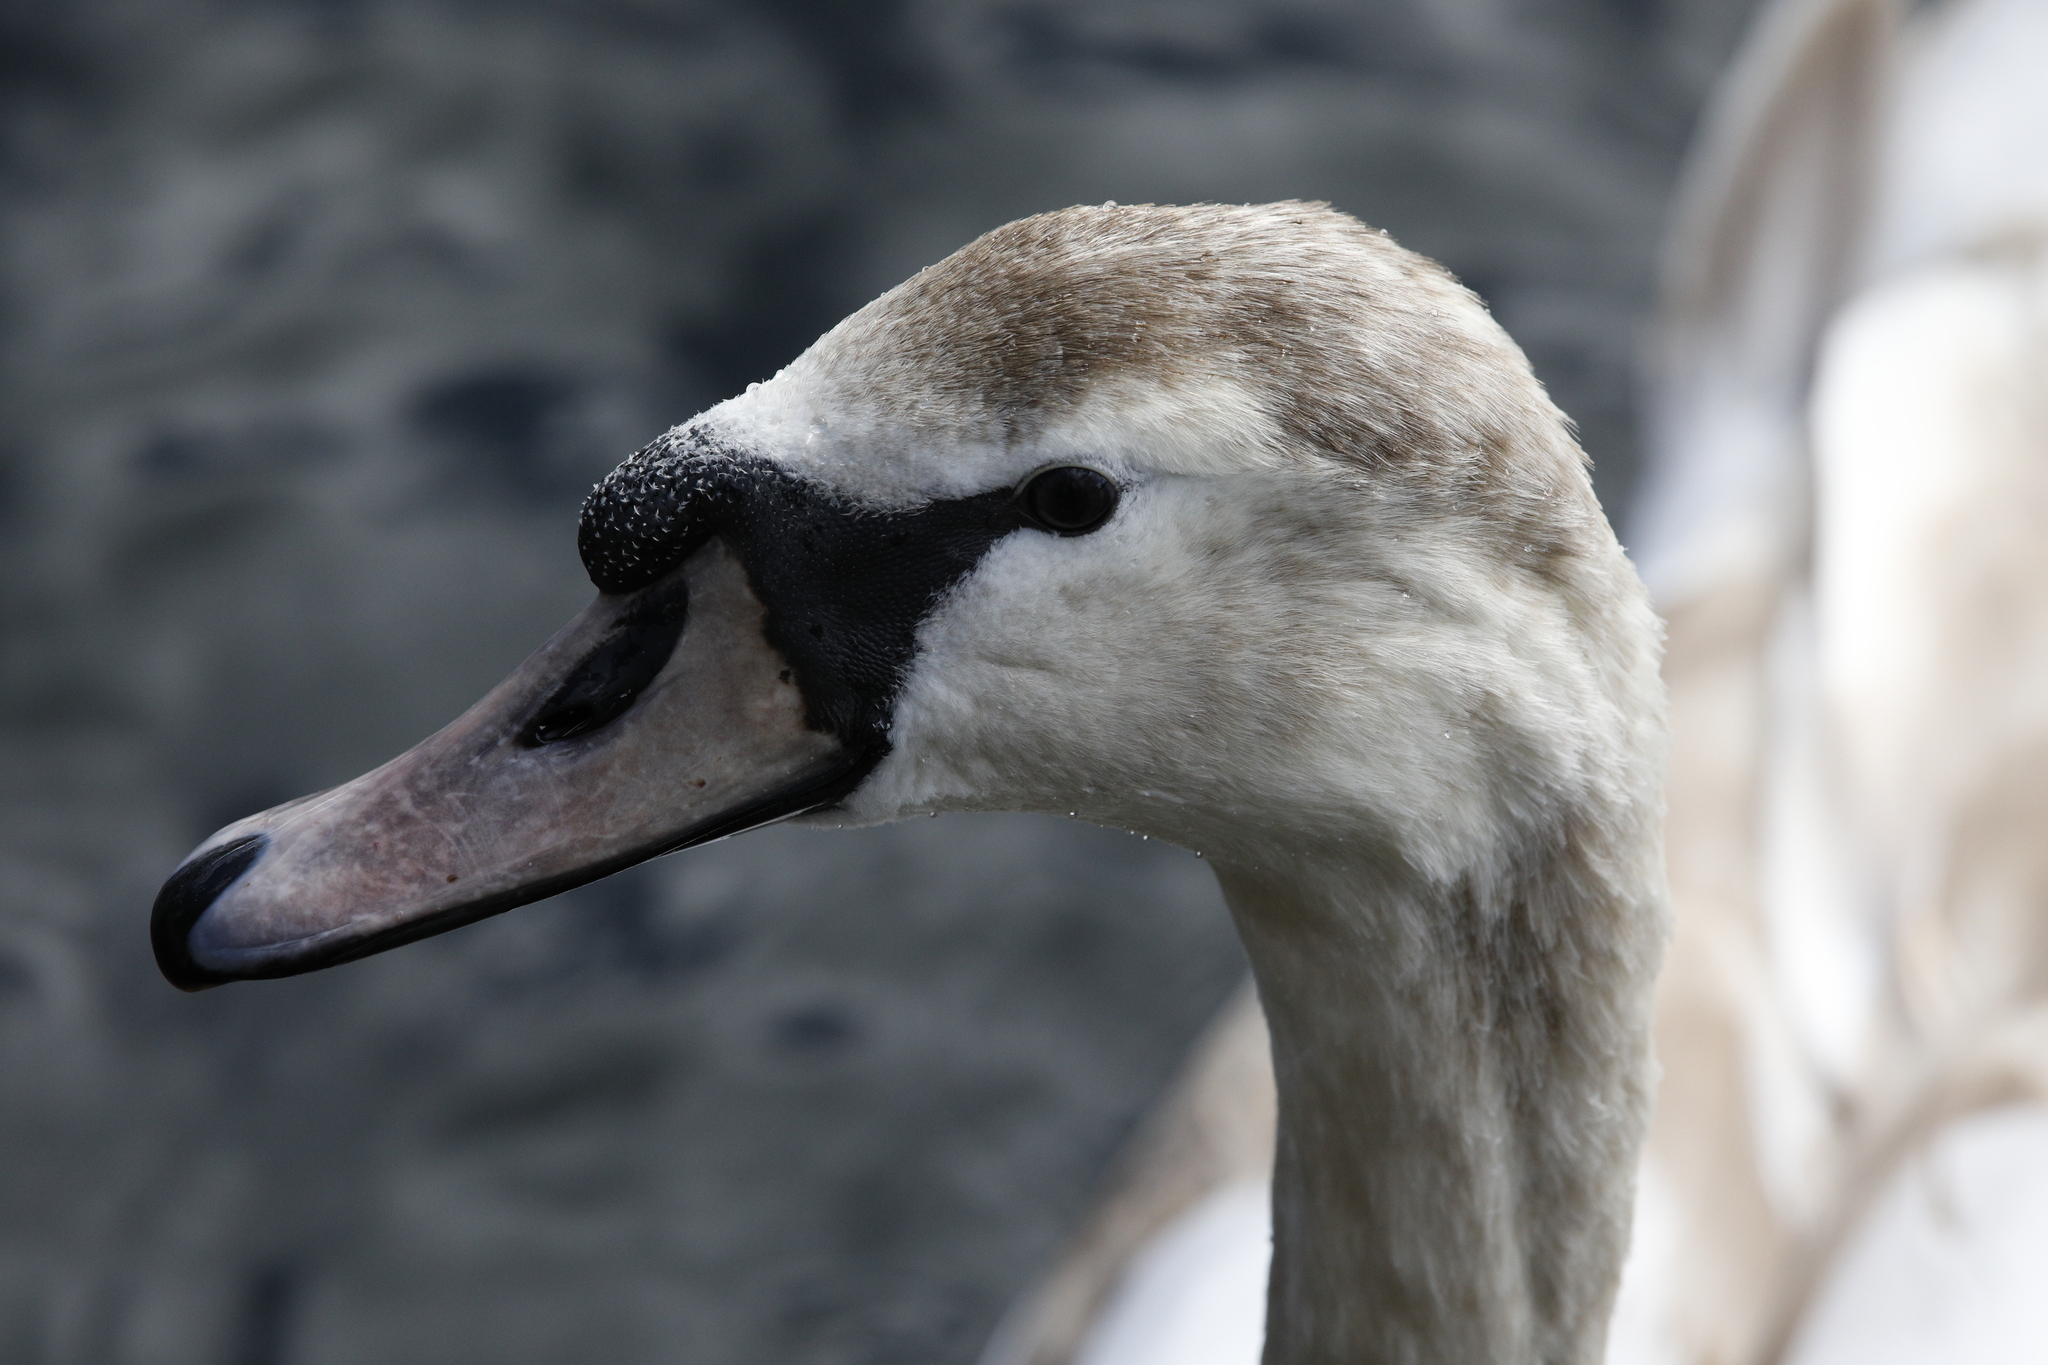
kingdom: Animalia
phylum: Chordata
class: Aves
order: Anseriformes
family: Anatidae
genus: Cygnus
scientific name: Cygnus olor
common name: Mute swan
